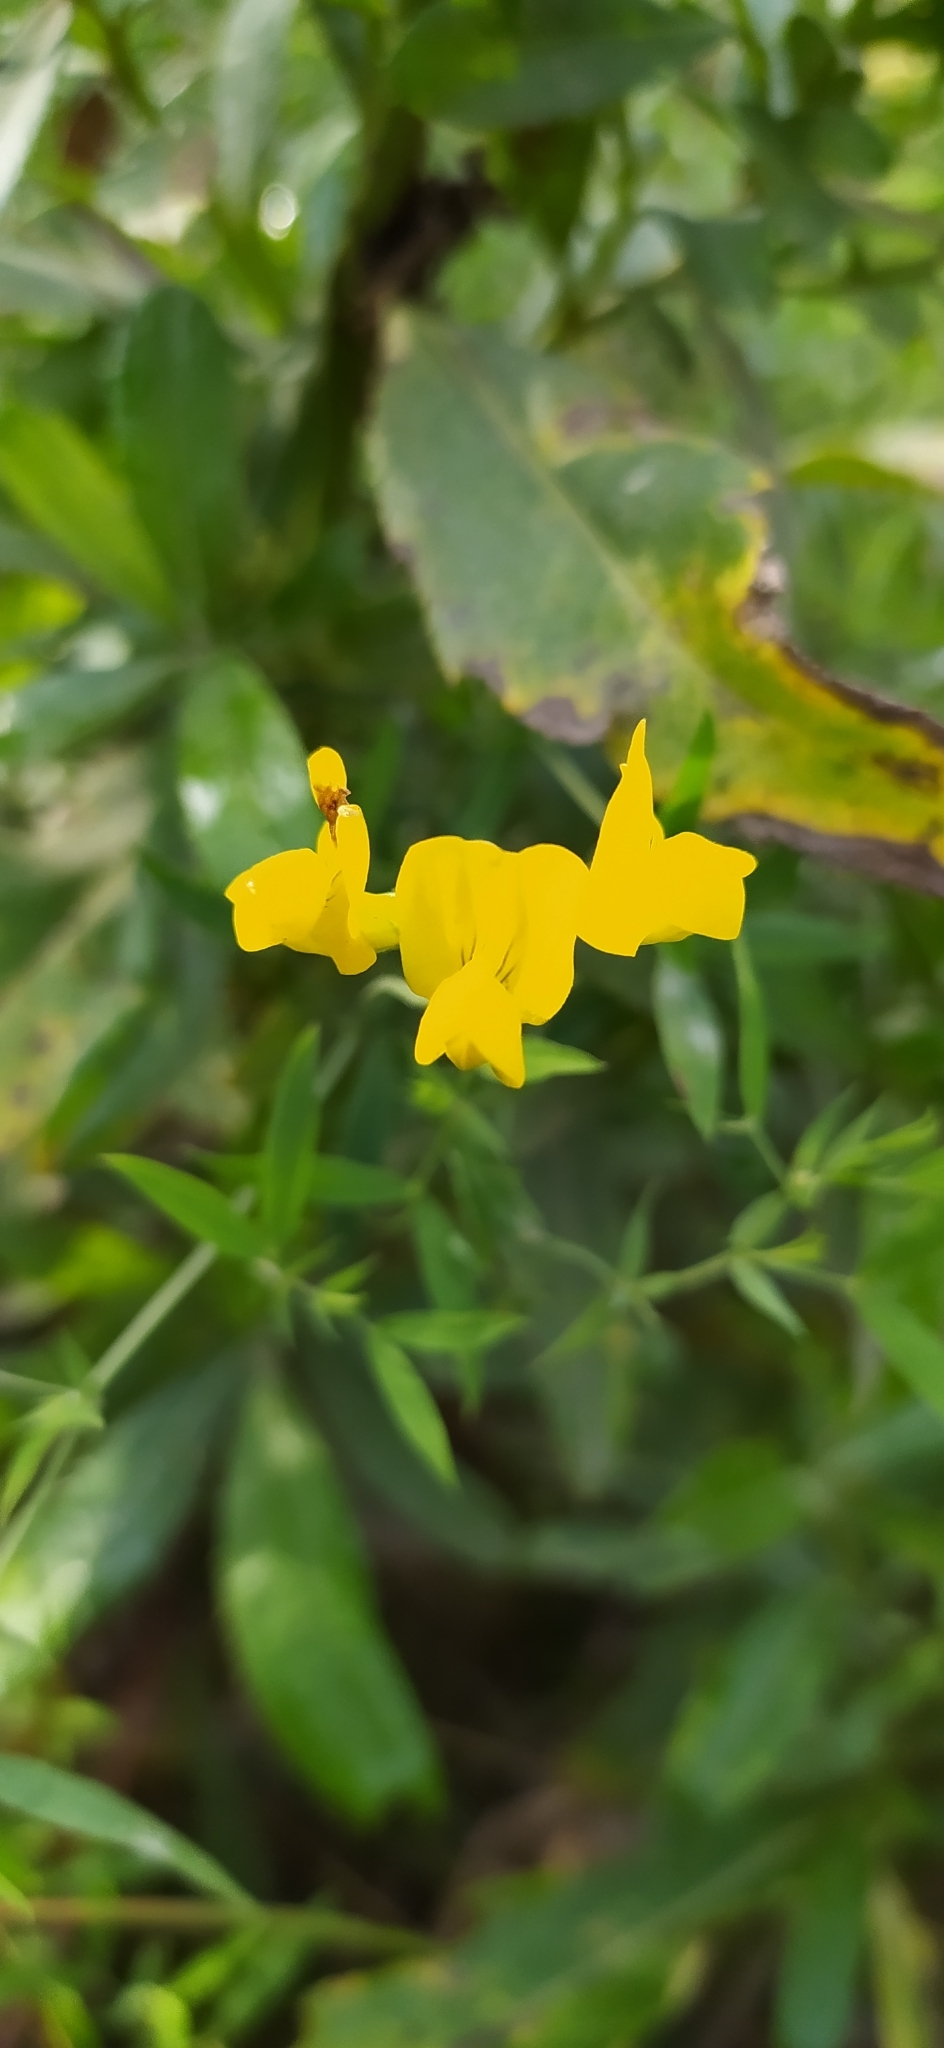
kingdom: Plantae
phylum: Tracheophyta
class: Magnoliopsida
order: Fabales
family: Fabaceae
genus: Lathyrus
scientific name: Lathyrus pratensis
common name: Meadow vetchling
